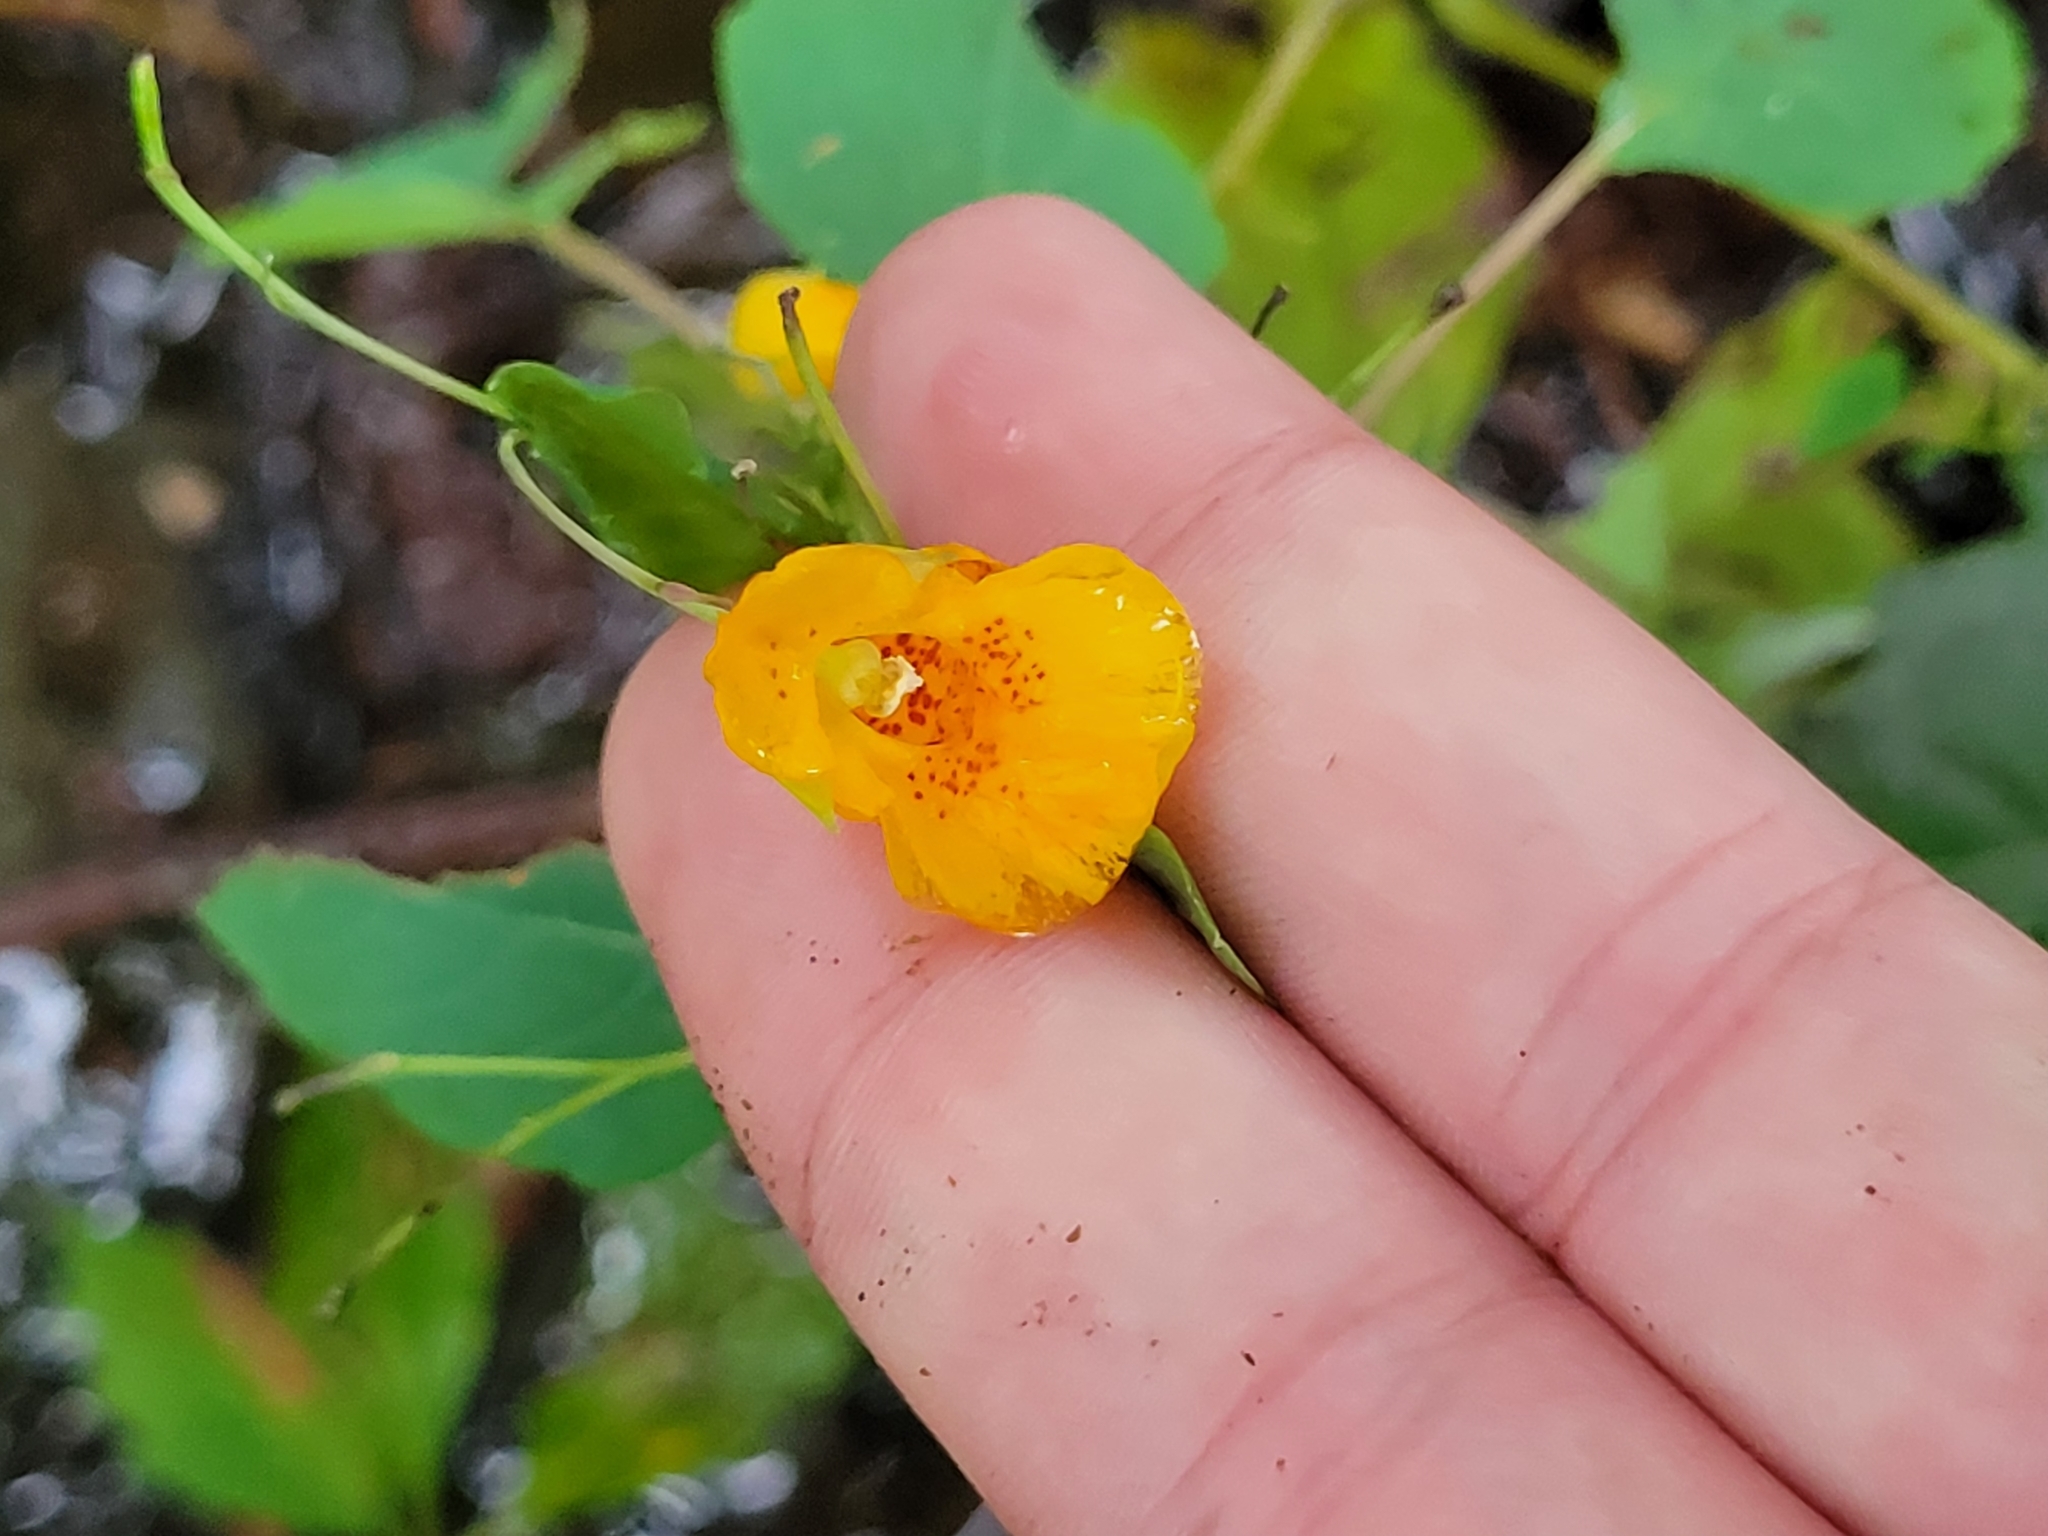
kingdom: Plantae
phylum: Tracheophyta
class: Magnoliopsida
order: Ericales
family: Balsaminaceae
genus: Impatiens
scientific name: Impatiens capensis
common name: Orange balsam
